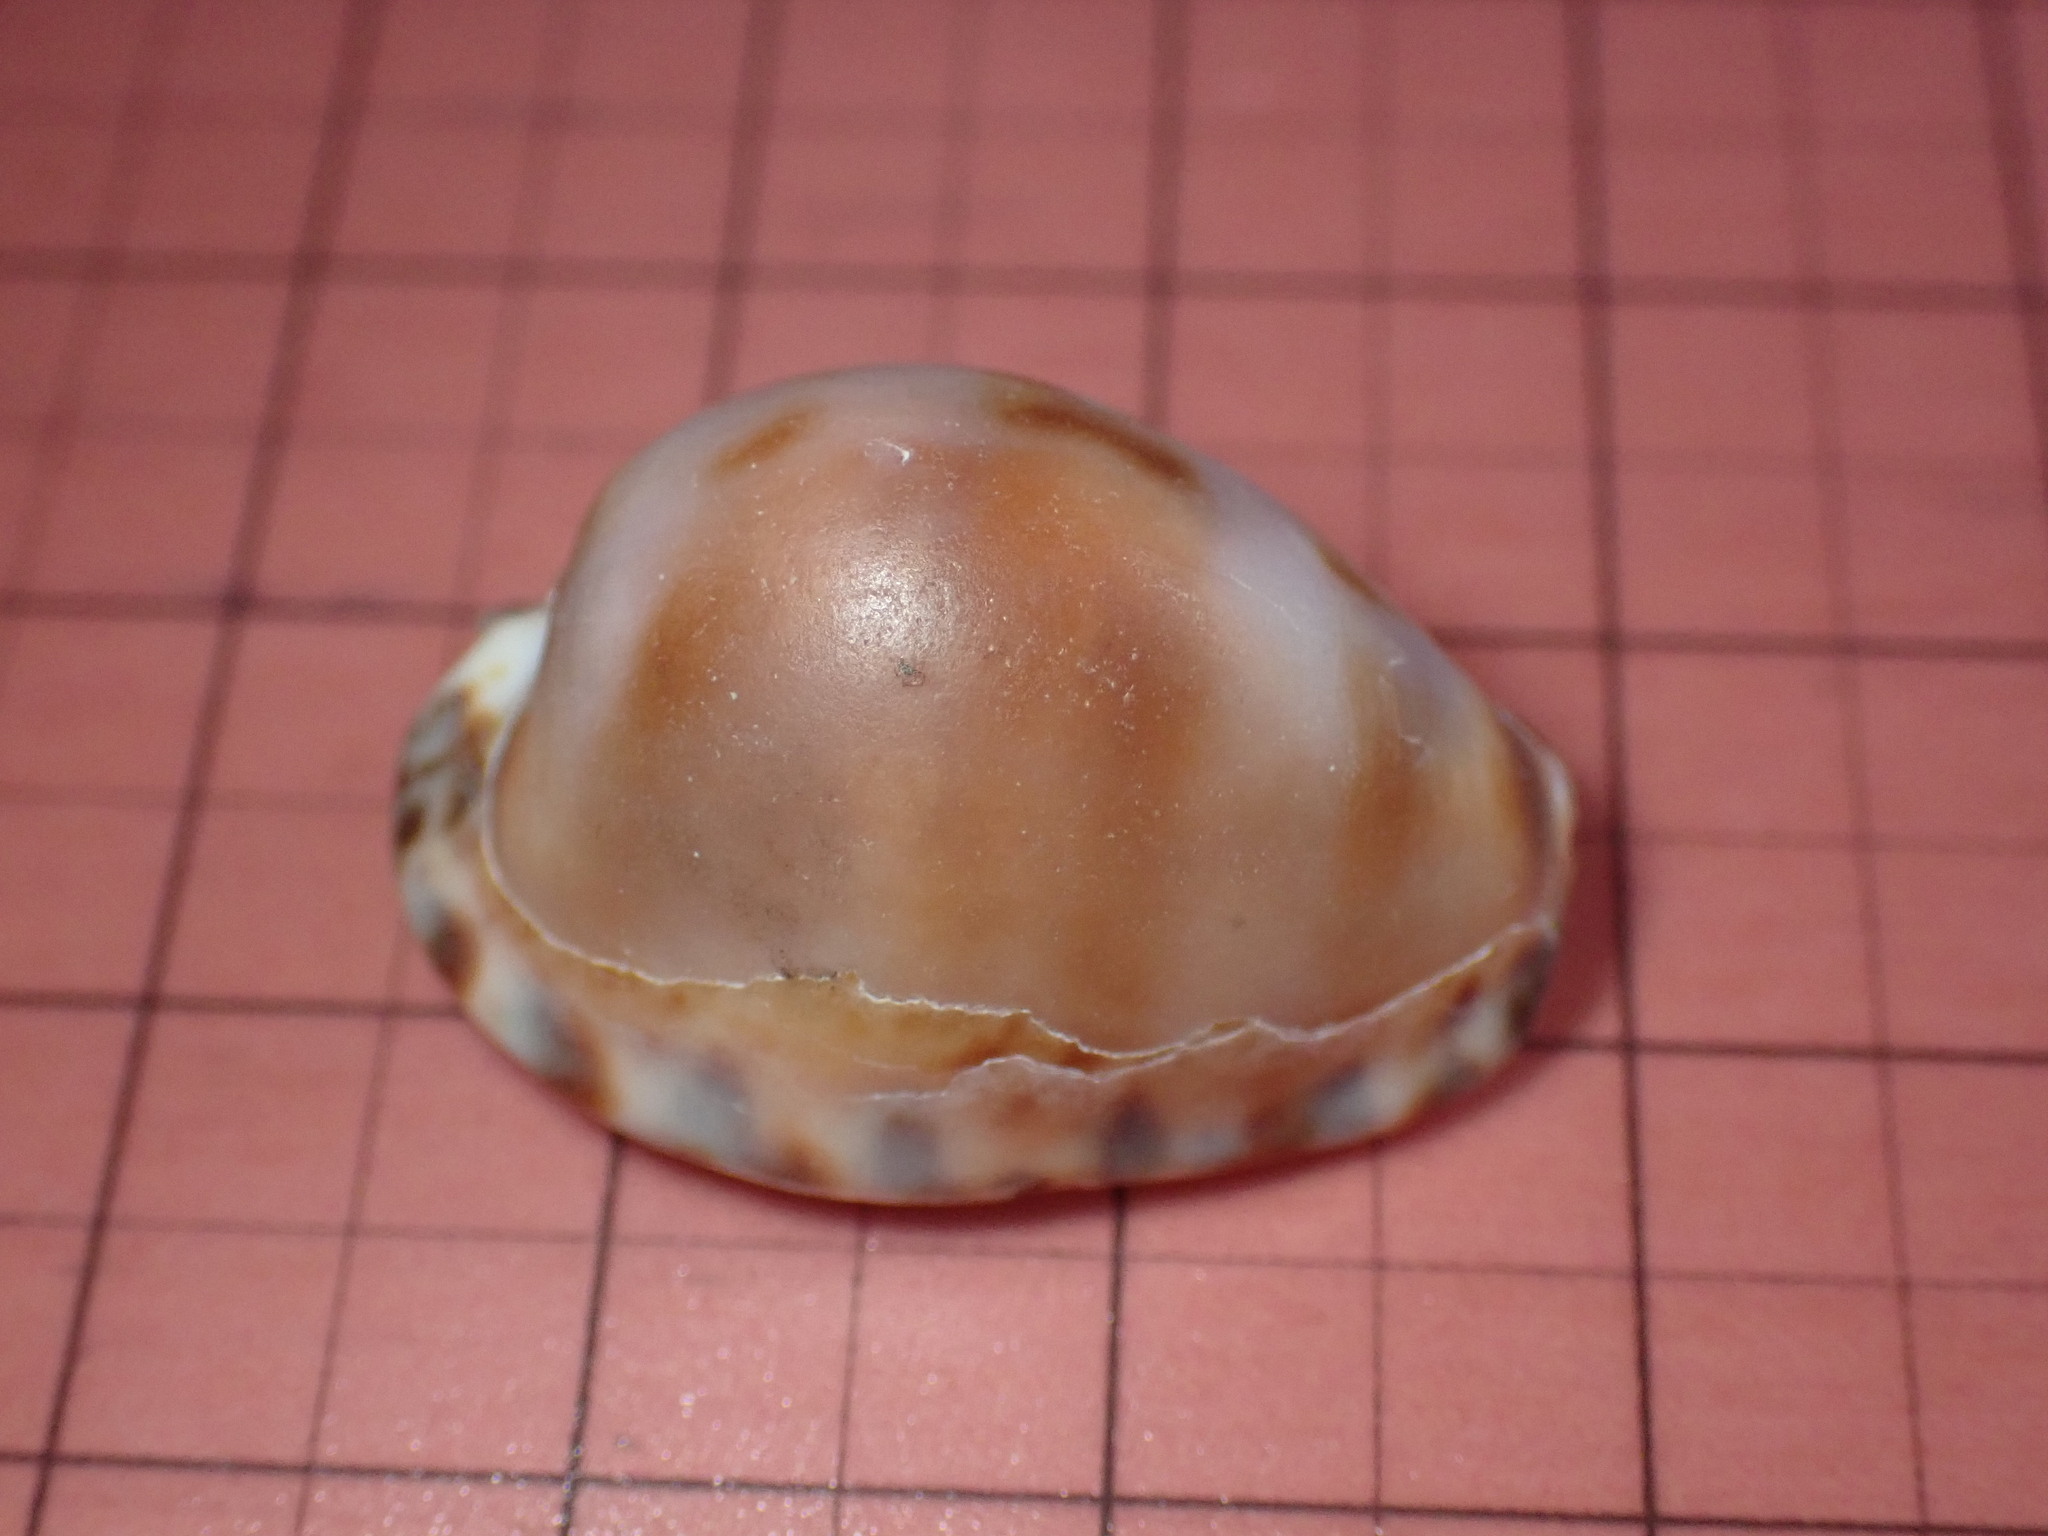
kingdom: Animalia
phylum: Mollusca
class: Gastropoda
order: Littorinimorpha
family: Cypraeidae
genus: Pseudozonaria
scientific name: Pseudozonaria arabicula
